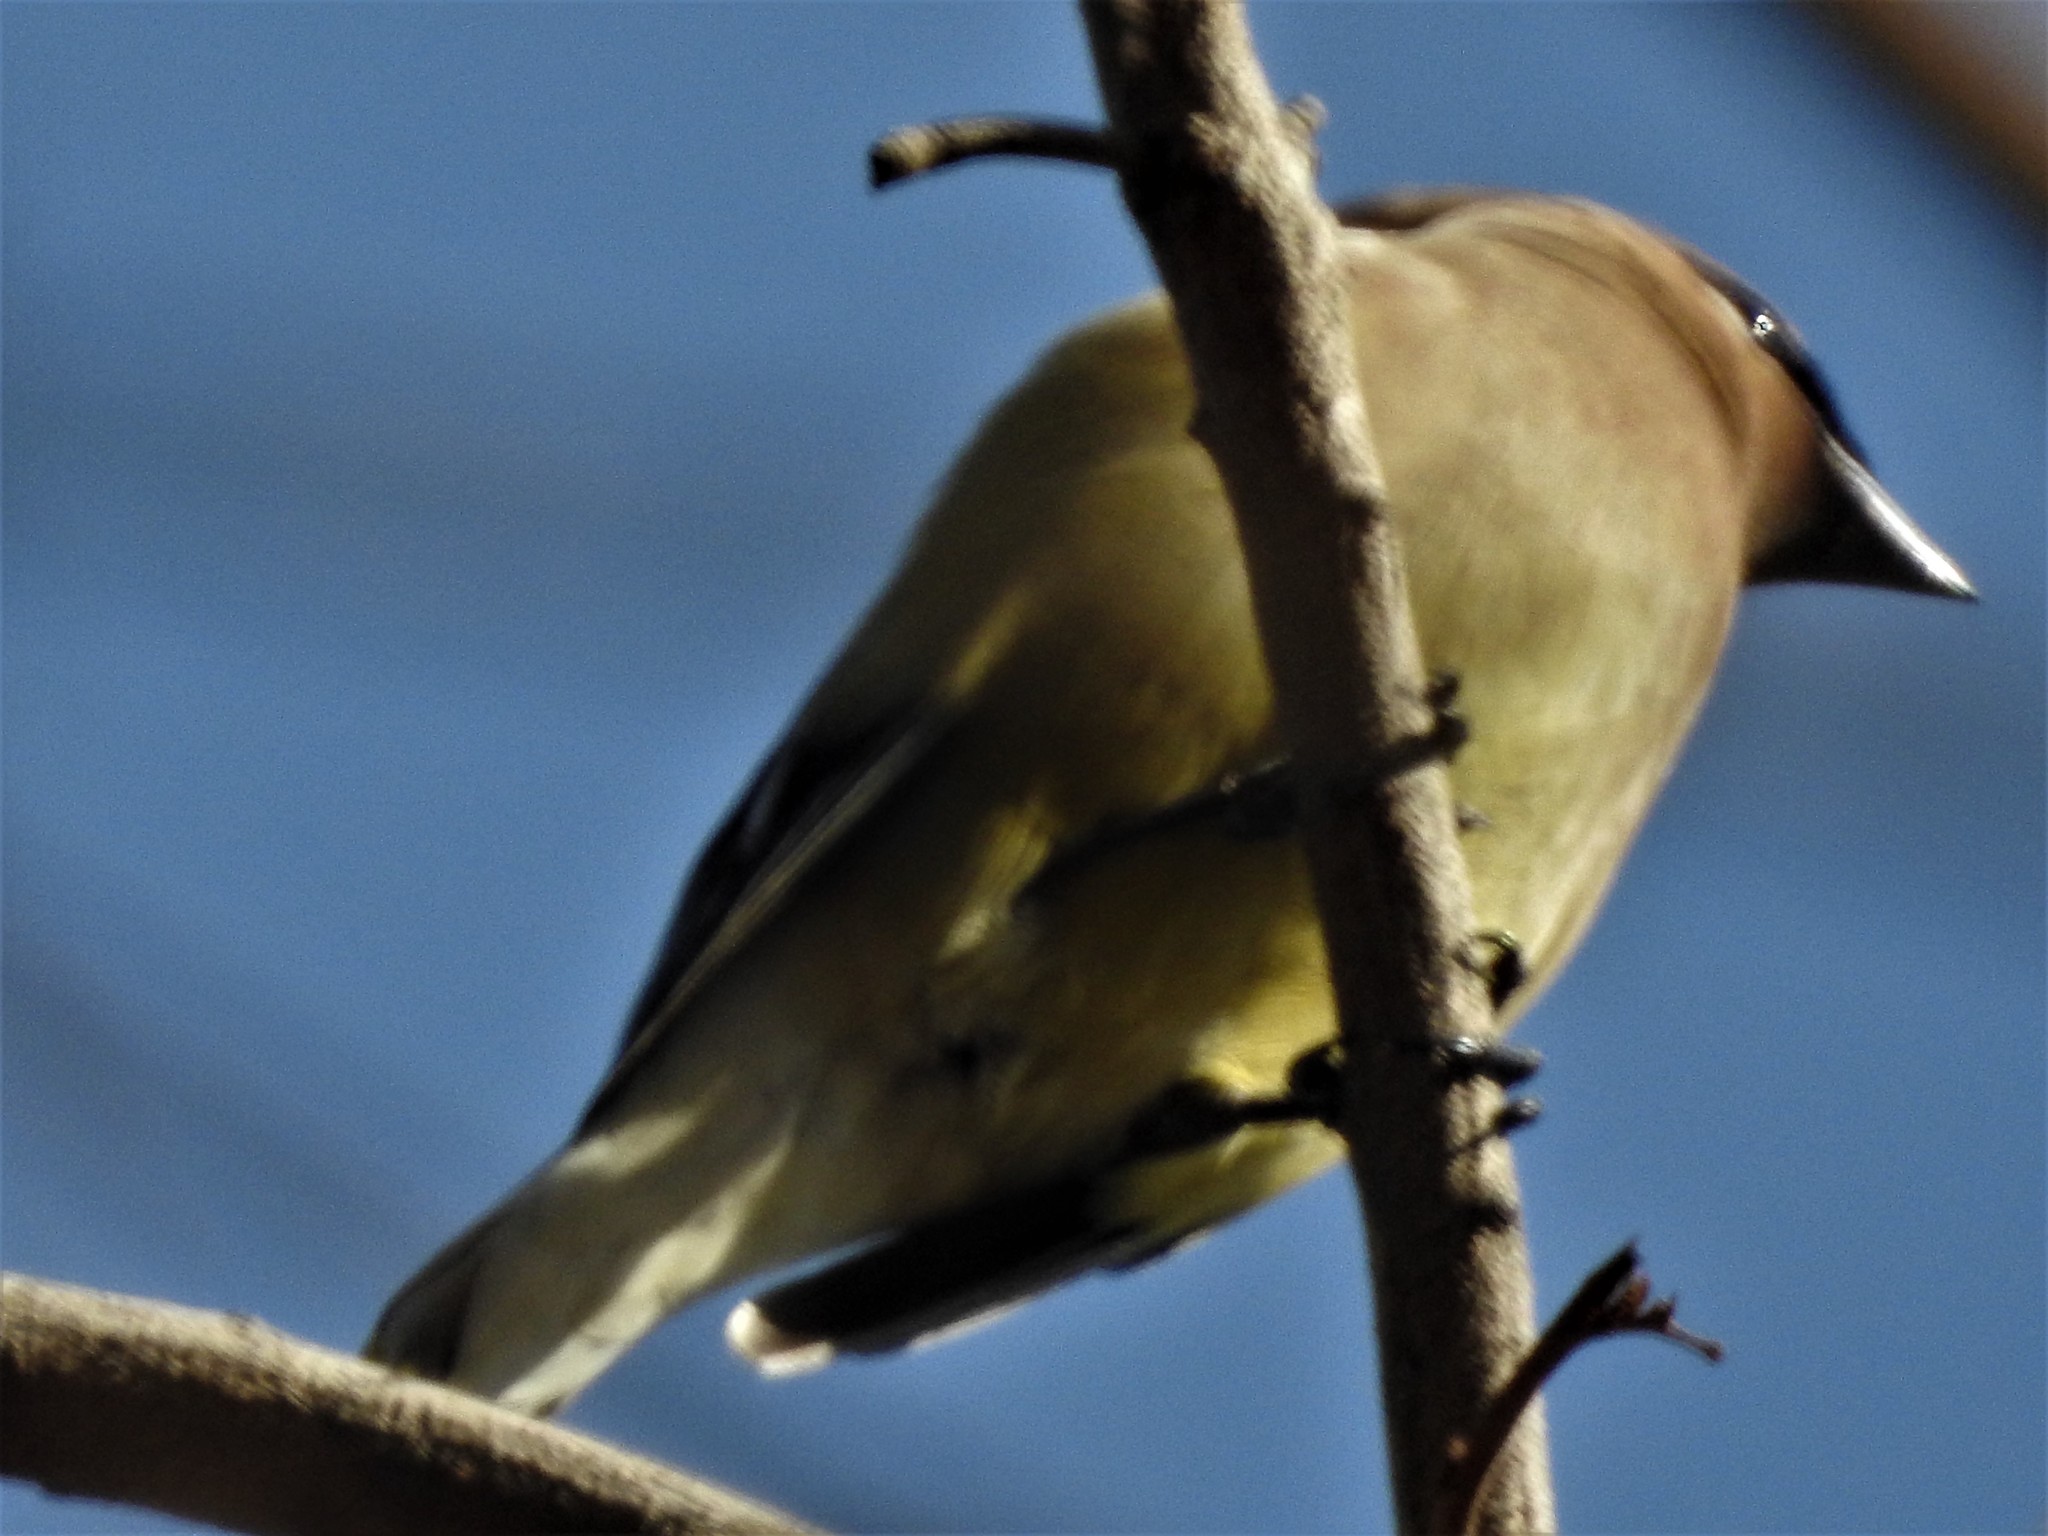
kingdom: Animalia
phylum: Chordata
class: Aves
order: Passeriformes
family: Bombycillidae
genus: Bombycilla
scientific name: Bombycilla cedrorum
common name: Cedar waxwing
